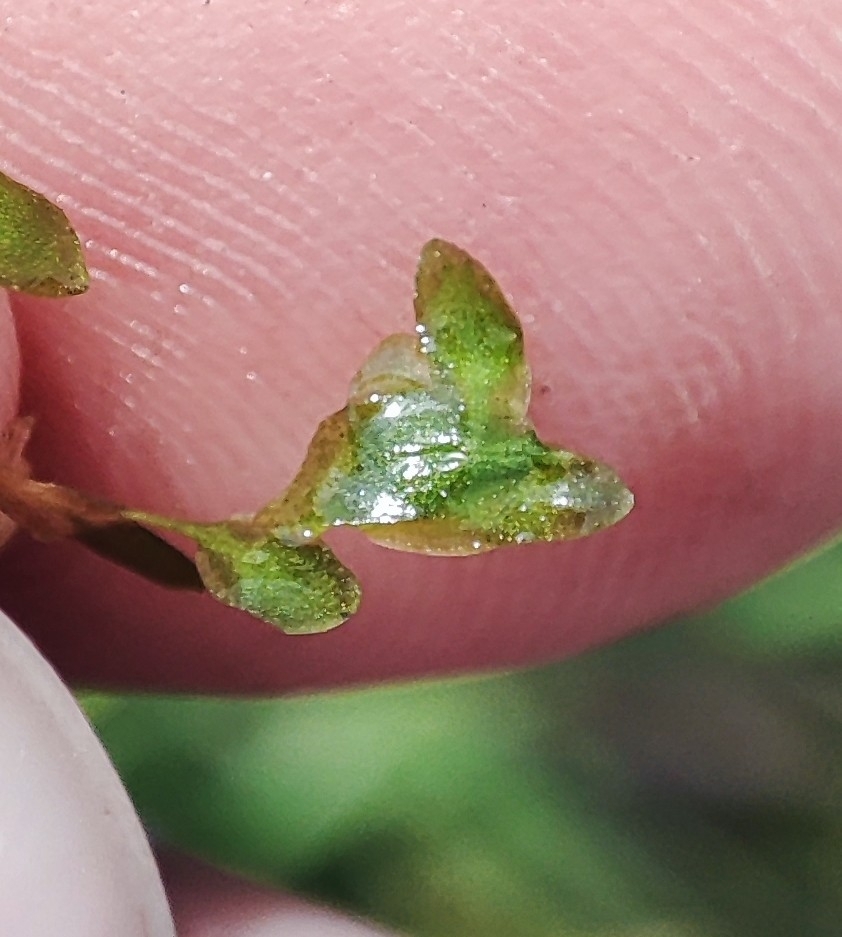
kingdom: Plantae
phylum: Tracheophyta
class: Liliopsida
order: Alismatales
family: Araceae
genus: Lemna
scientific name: Lemna trisulca
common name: Ivy-leaved duckweed
